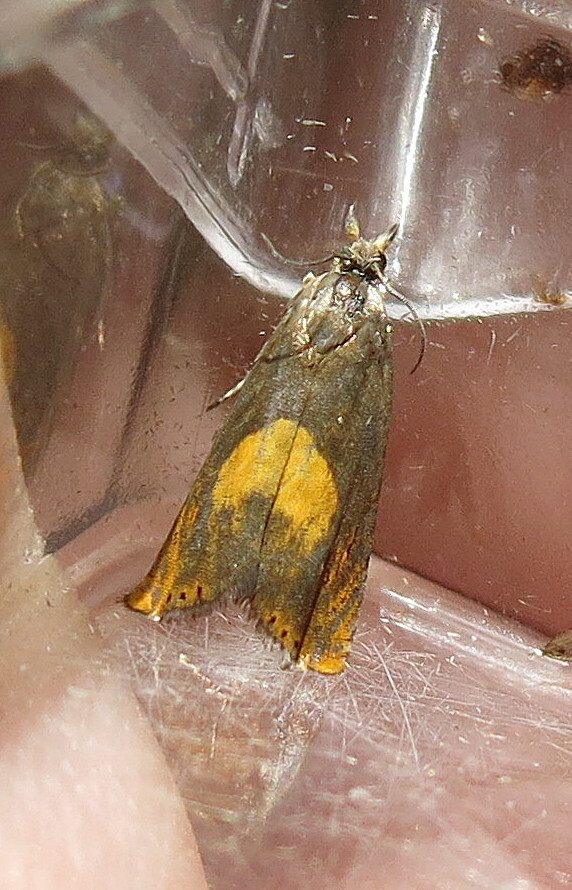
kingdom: Animalia
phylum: Arthropoda
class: Insecta
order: Lepidoptera
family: Tortricidae
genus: Dichrorampha
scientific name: Dichrorampha petiverella
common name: Common drill
